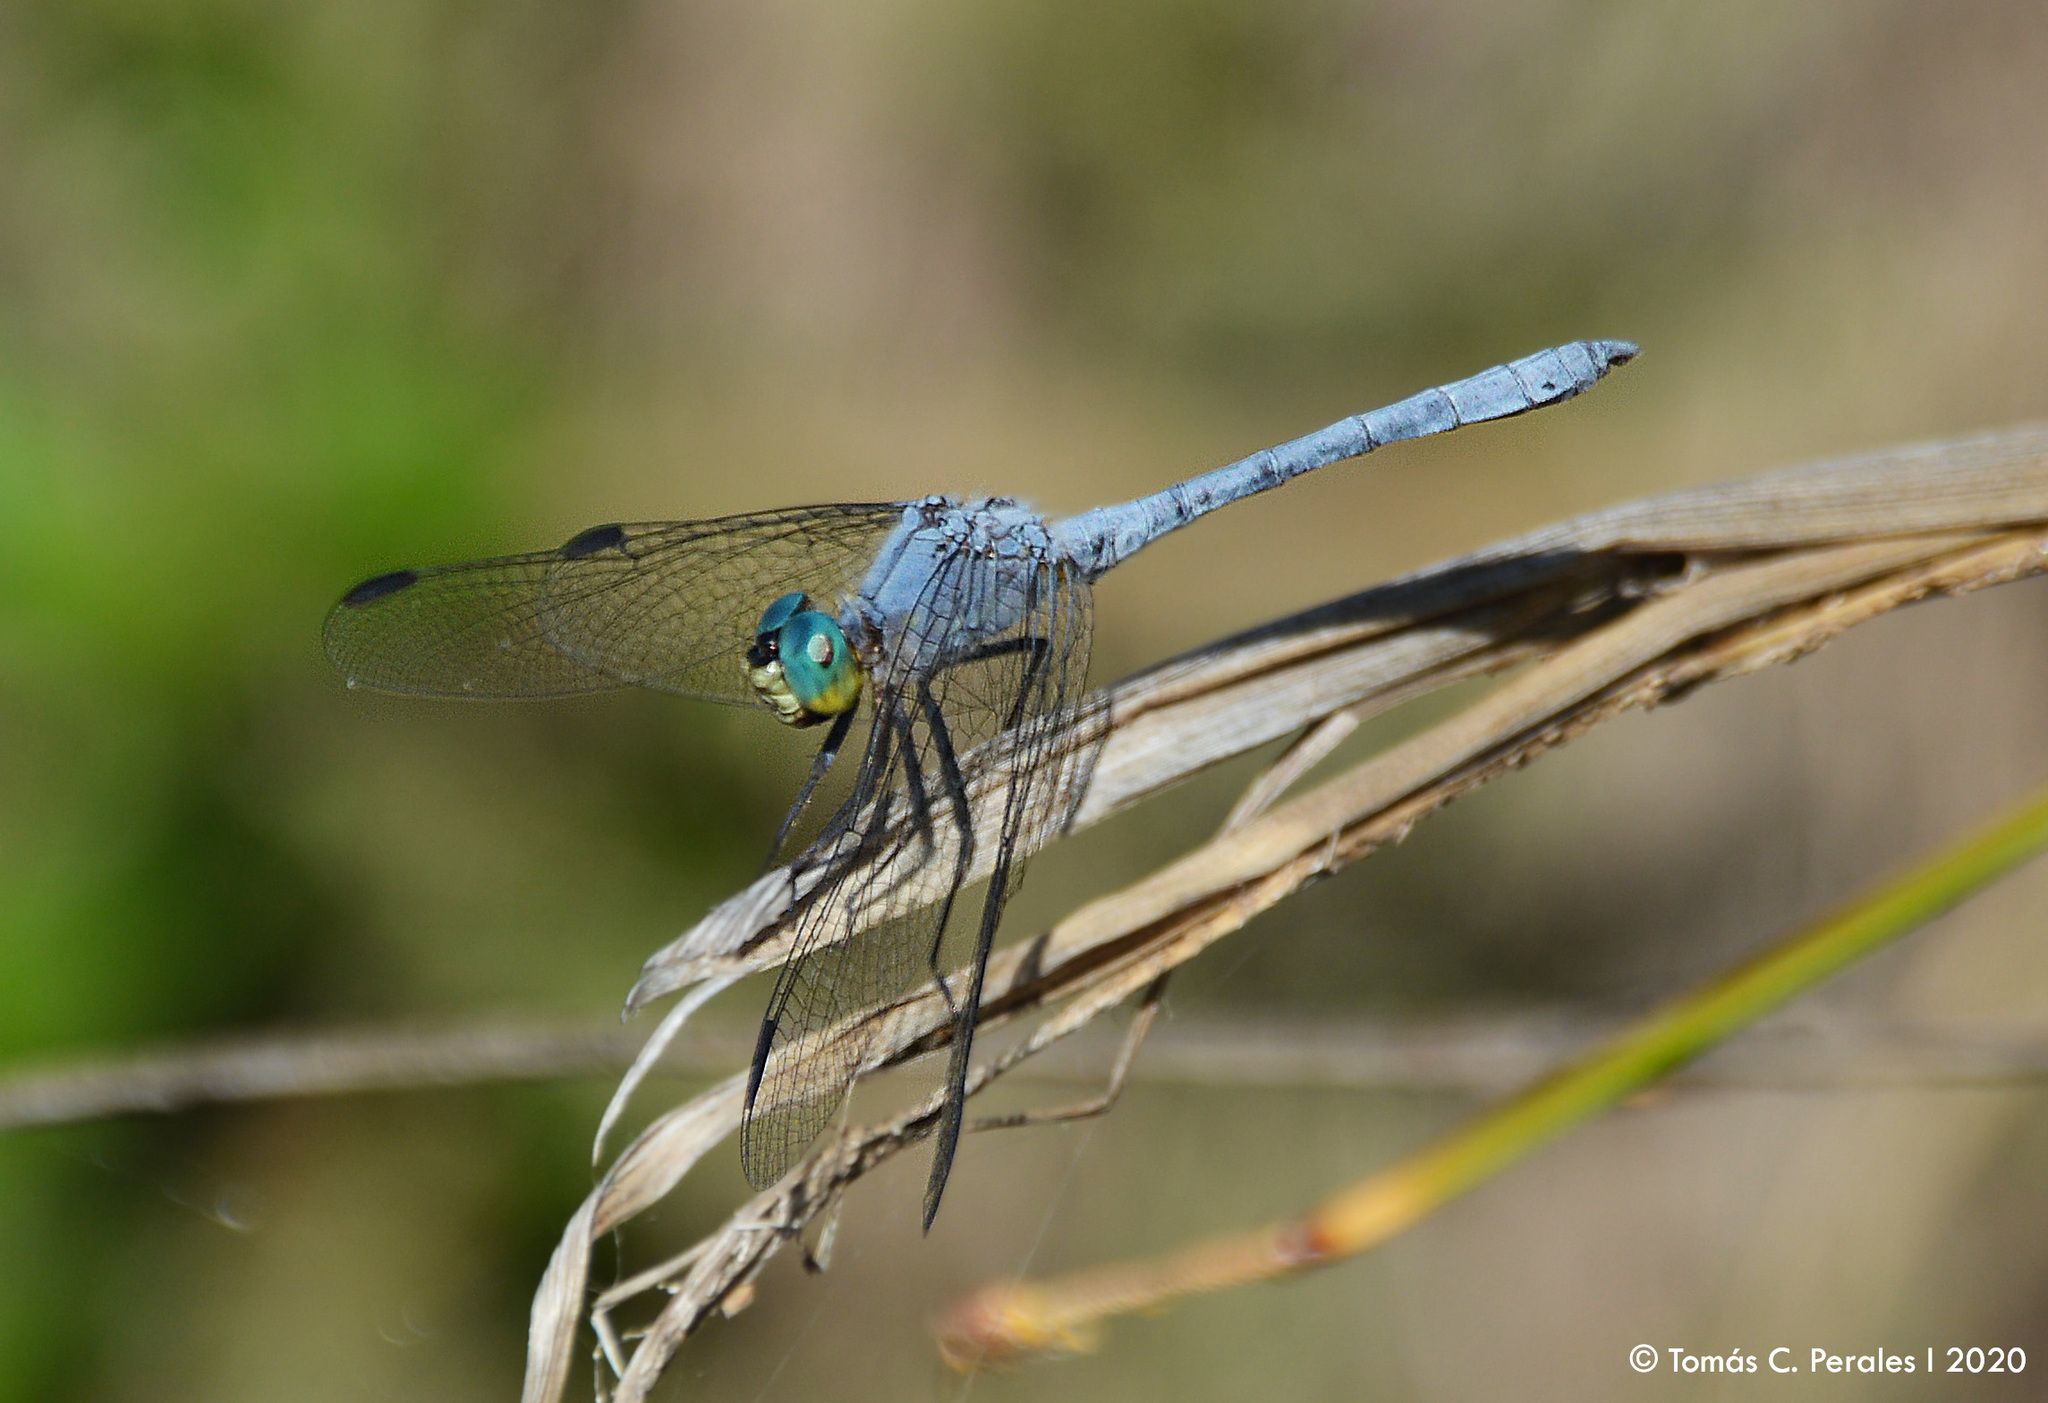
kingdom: Animalia
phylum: Arthropoda
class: Insecta
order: Odonata
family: Libellulidae
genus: Dasythemis
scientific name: Dasythemis mincki
